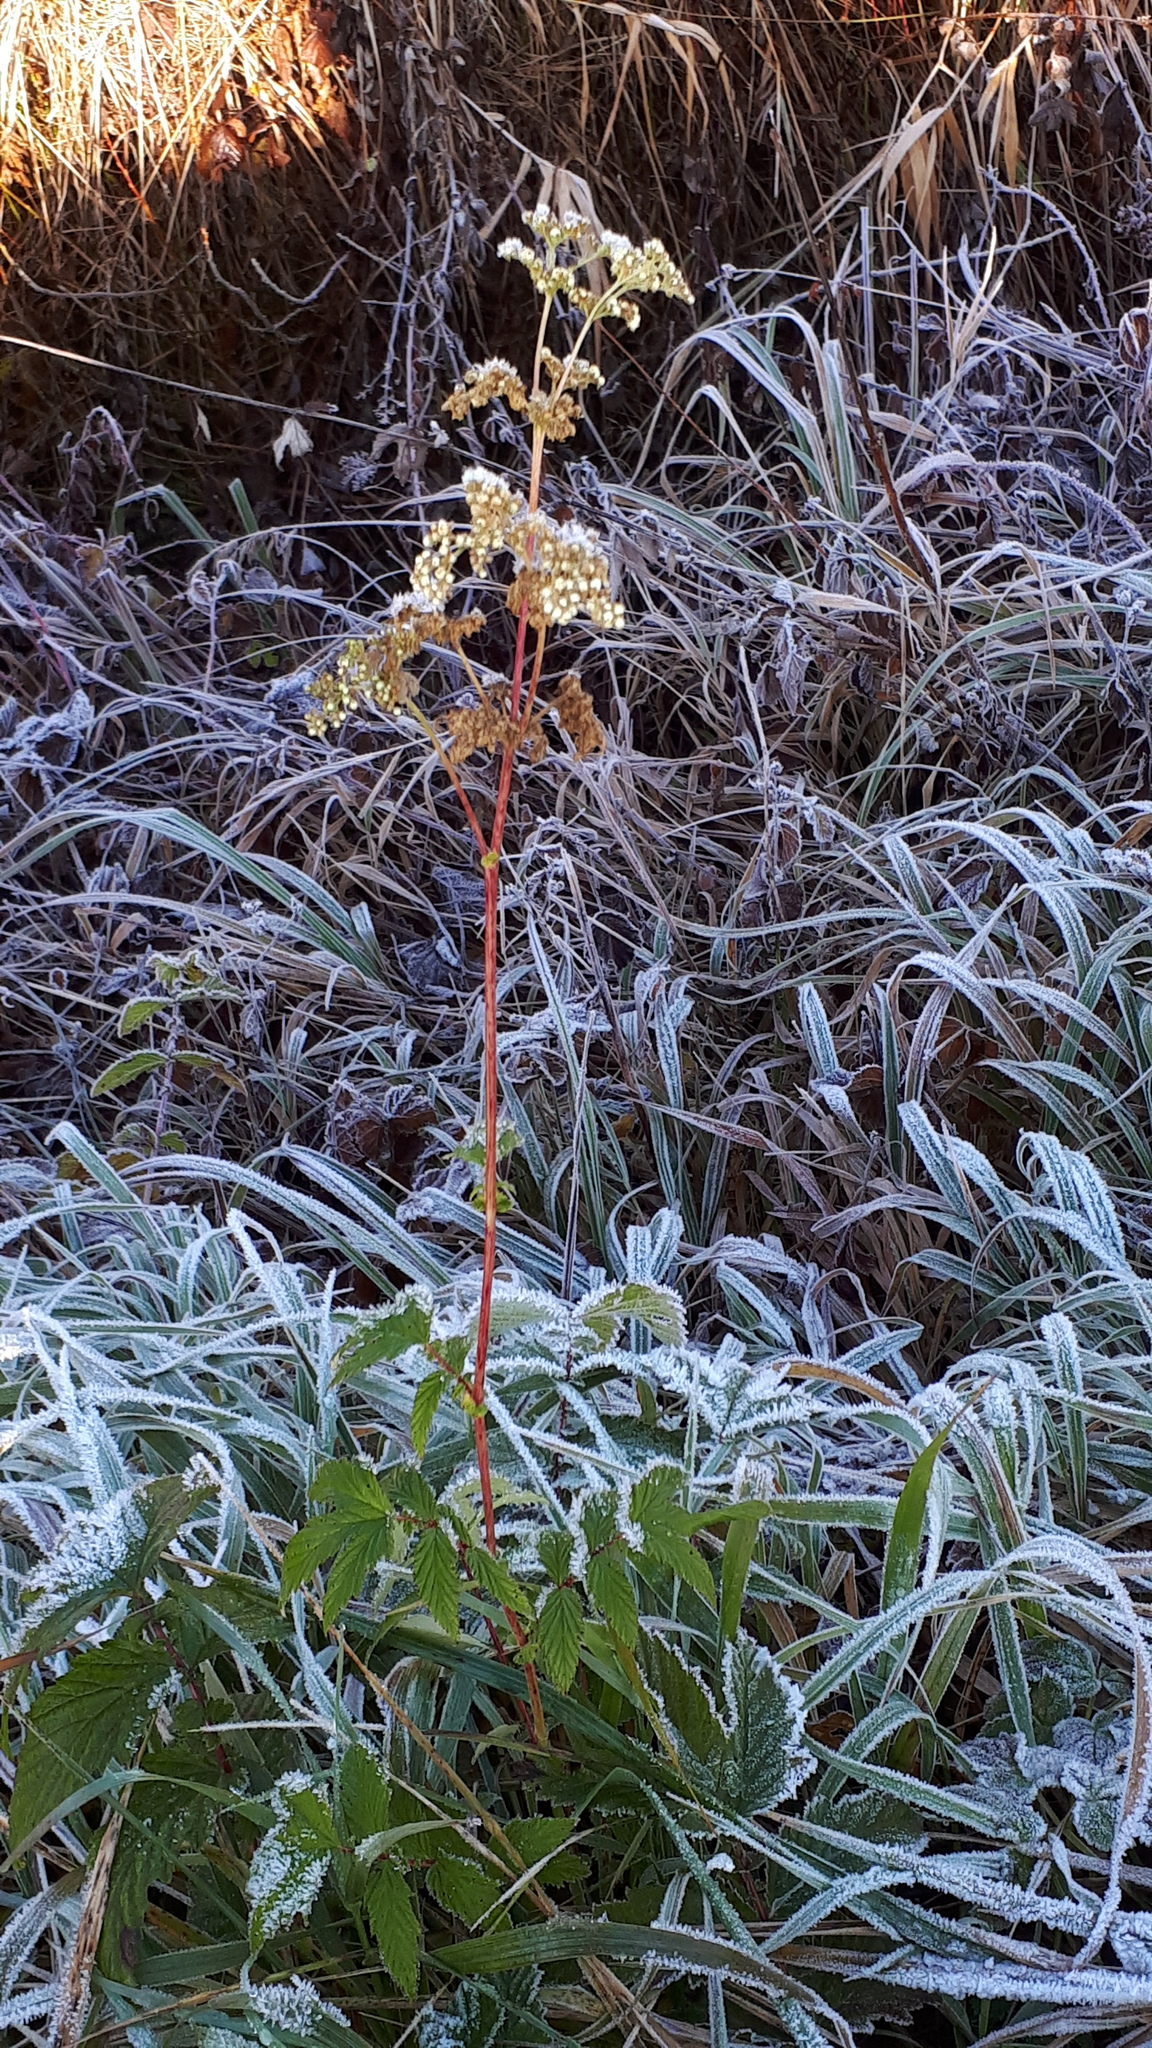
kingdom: Plantae
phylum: Tracheophyta
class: Magnoliopsida
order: Rosales
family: Rosaceae
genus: Filipendula
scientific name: Filipendula ulmaria
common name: Meadowsweet
